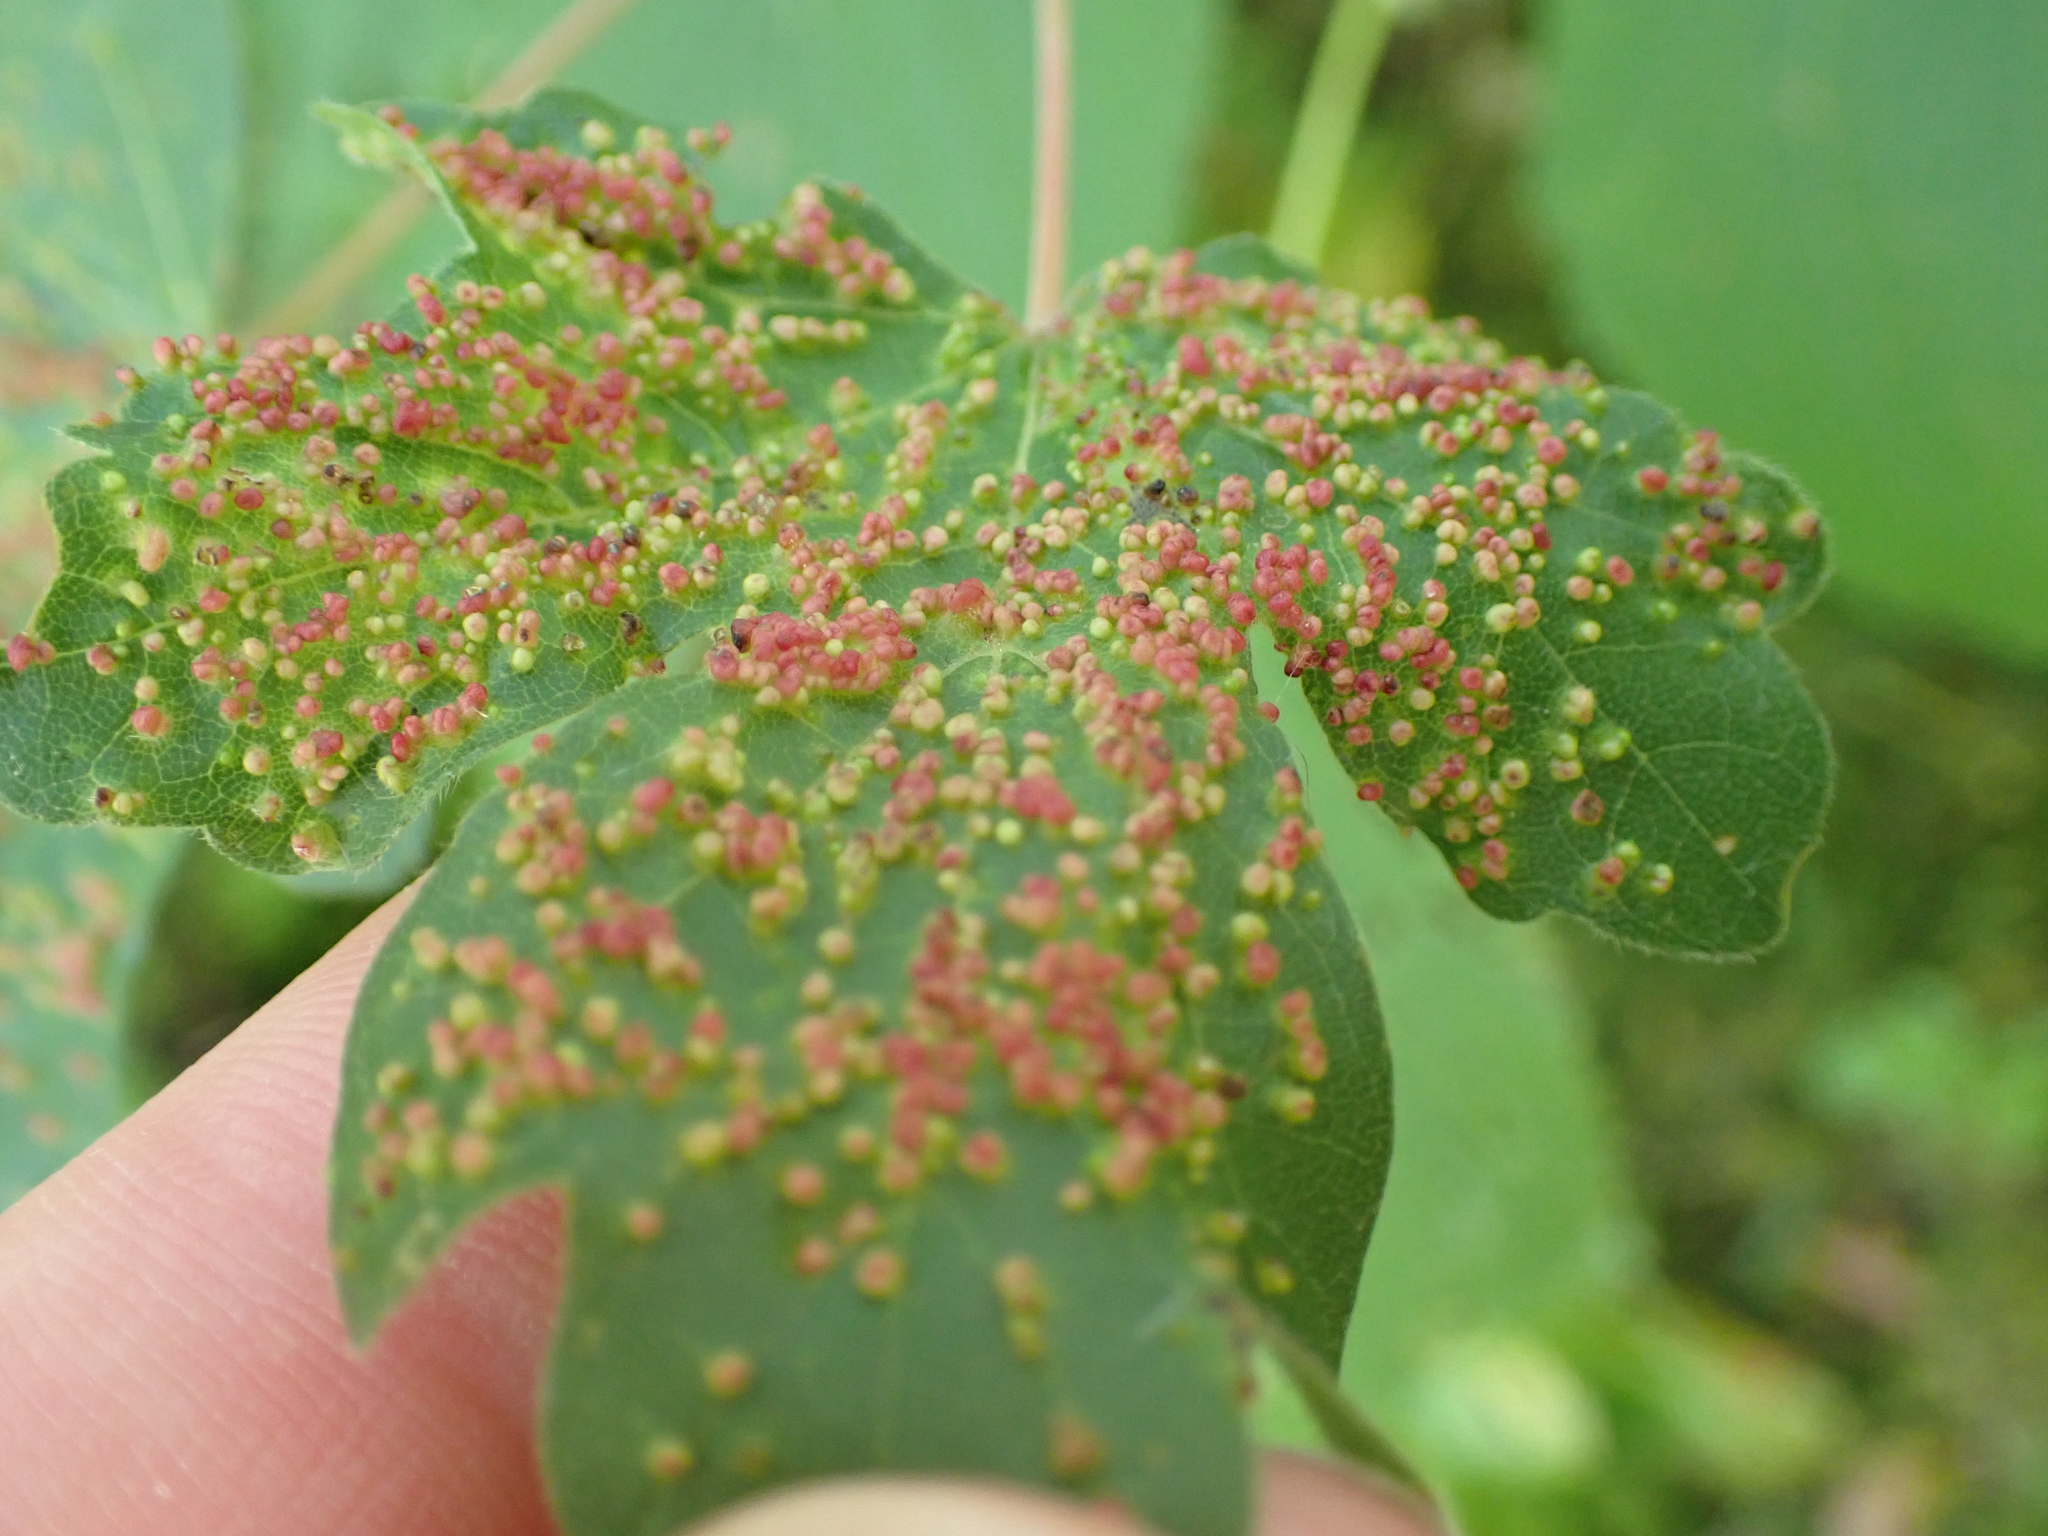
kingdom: Plantae
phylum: Tracheophyta
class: Magnoliopsida
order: Sapindales
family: Sapindaceae
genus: Acer
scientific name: Acer campestre
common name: Field maple
